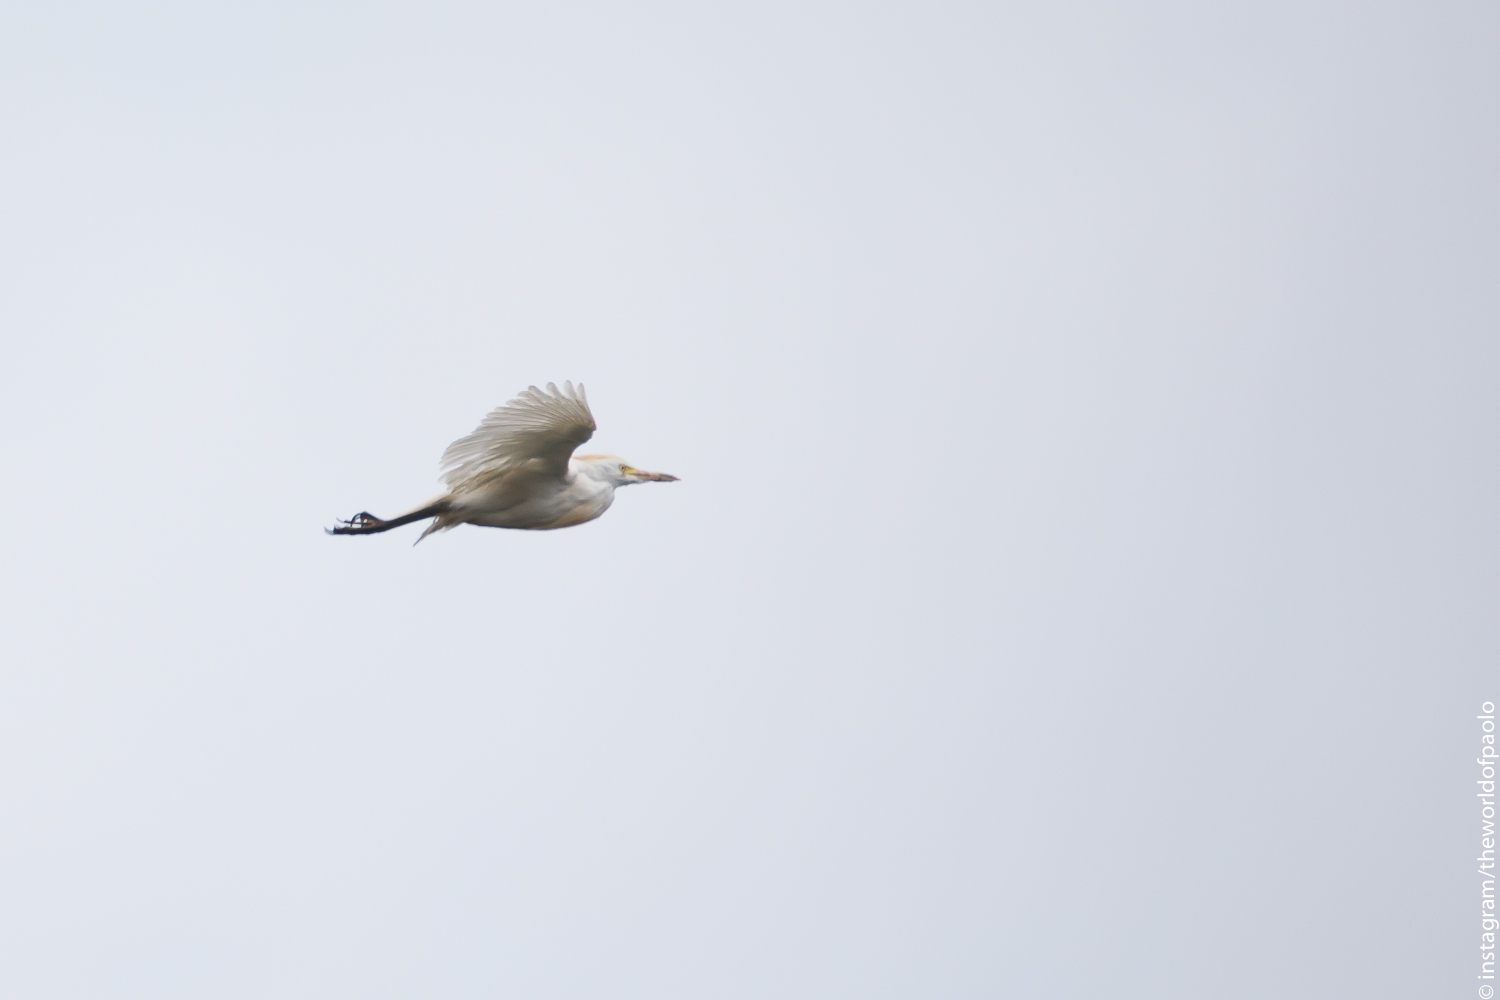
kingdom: Animalia
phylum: Chordata
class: Aves
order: Pelecaniformes
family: Ardeidae
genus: Bubulcus
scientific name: Bubulcus ibis
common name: Cattle egret
